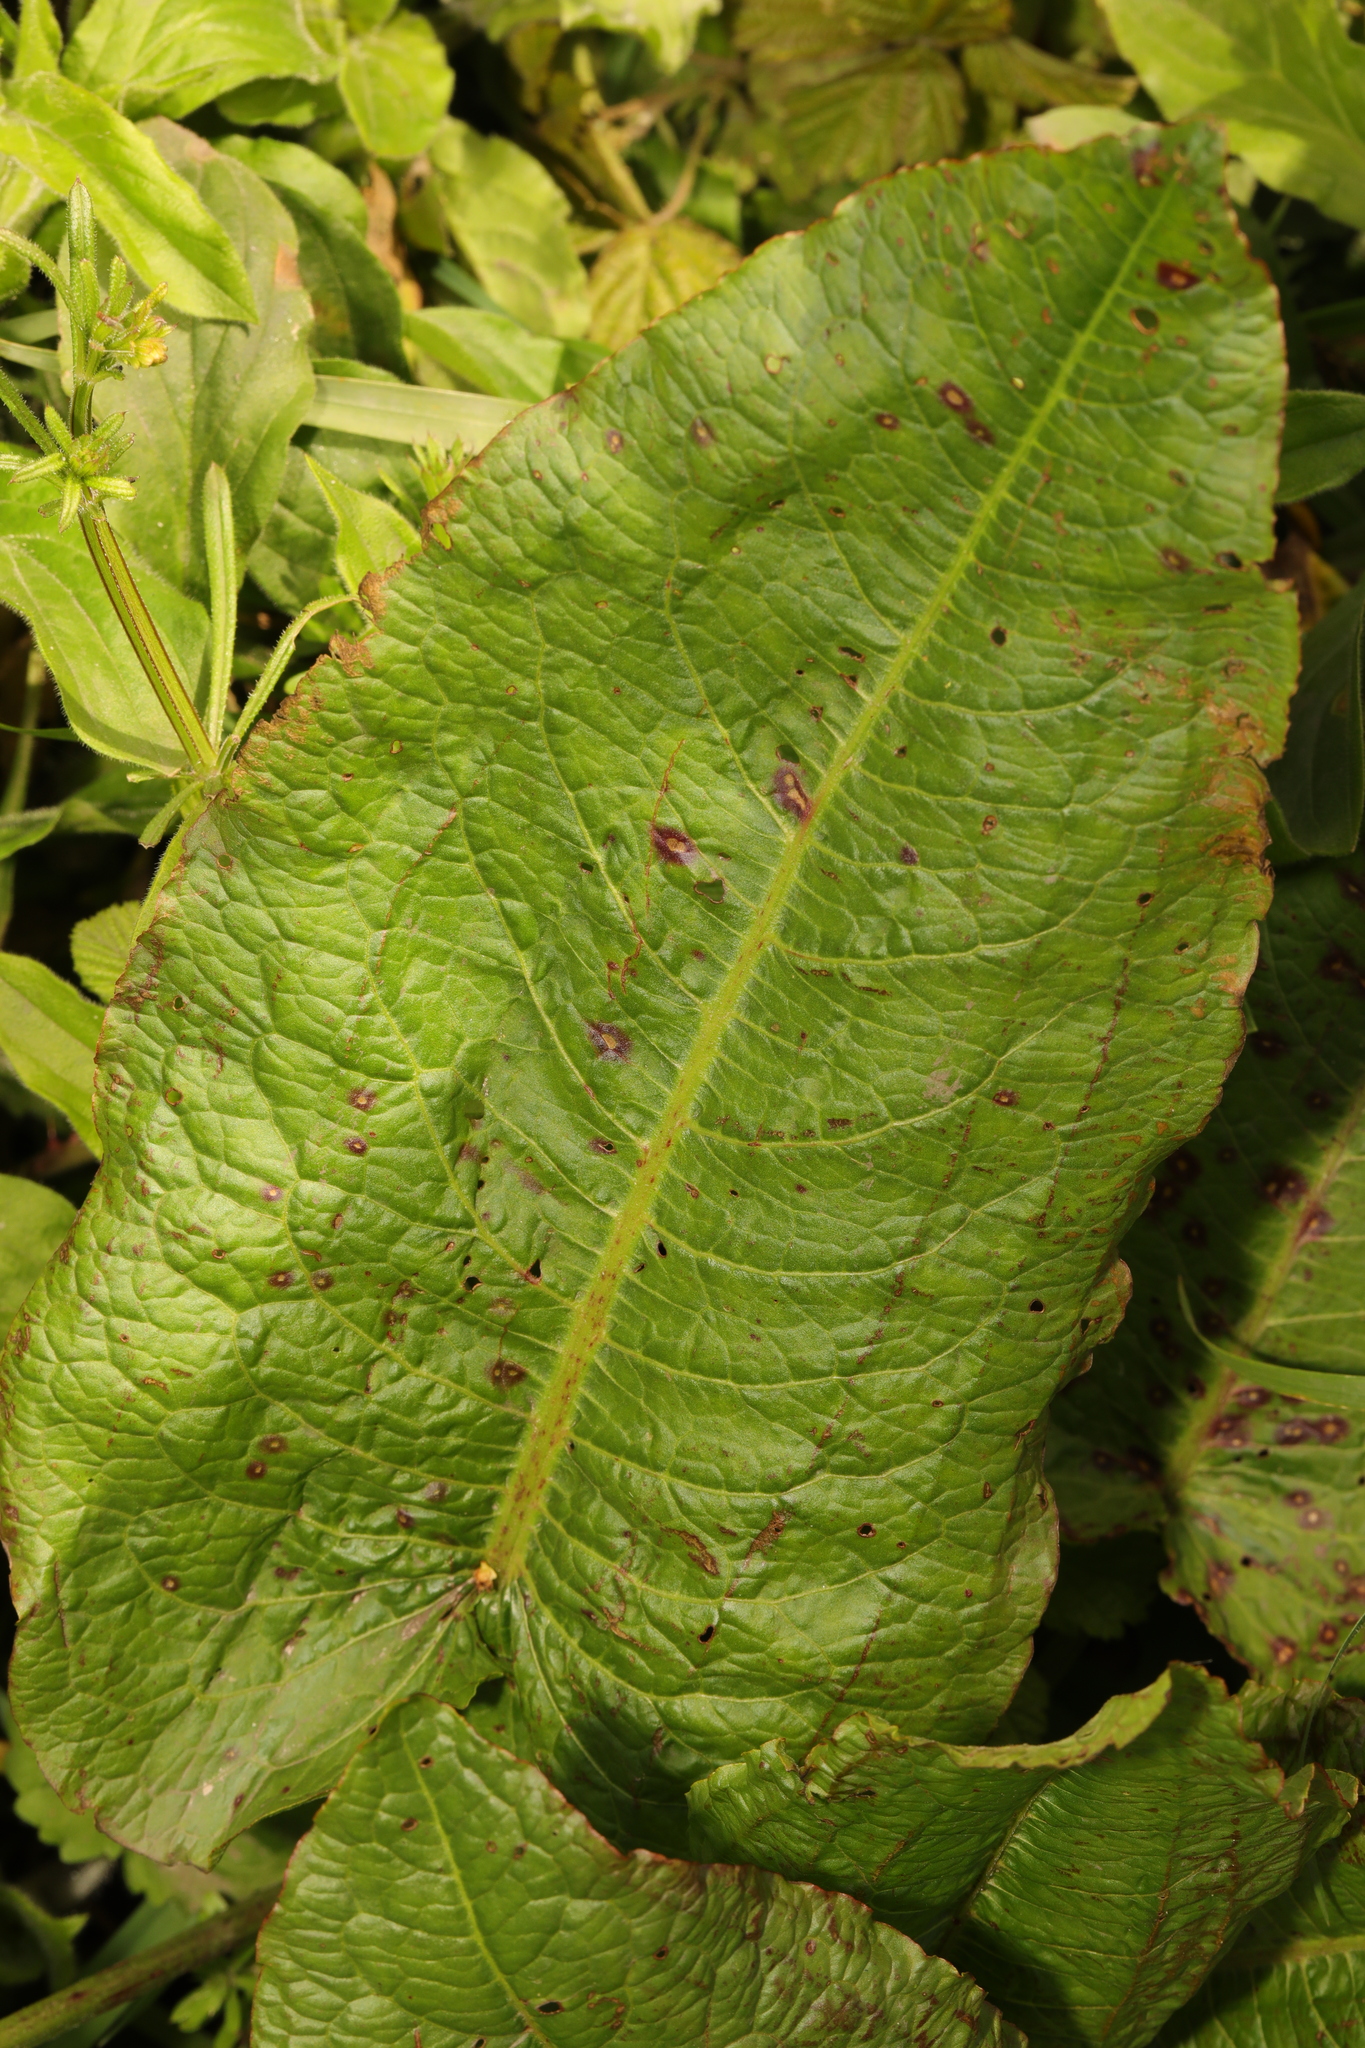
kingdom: Plantae
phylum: Tracheophyta
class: Magnoliopsida
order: Caryophyllales
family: Polygonaceae
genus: Rumex
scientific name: Rumex obtusifolius
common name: Bitter dock
